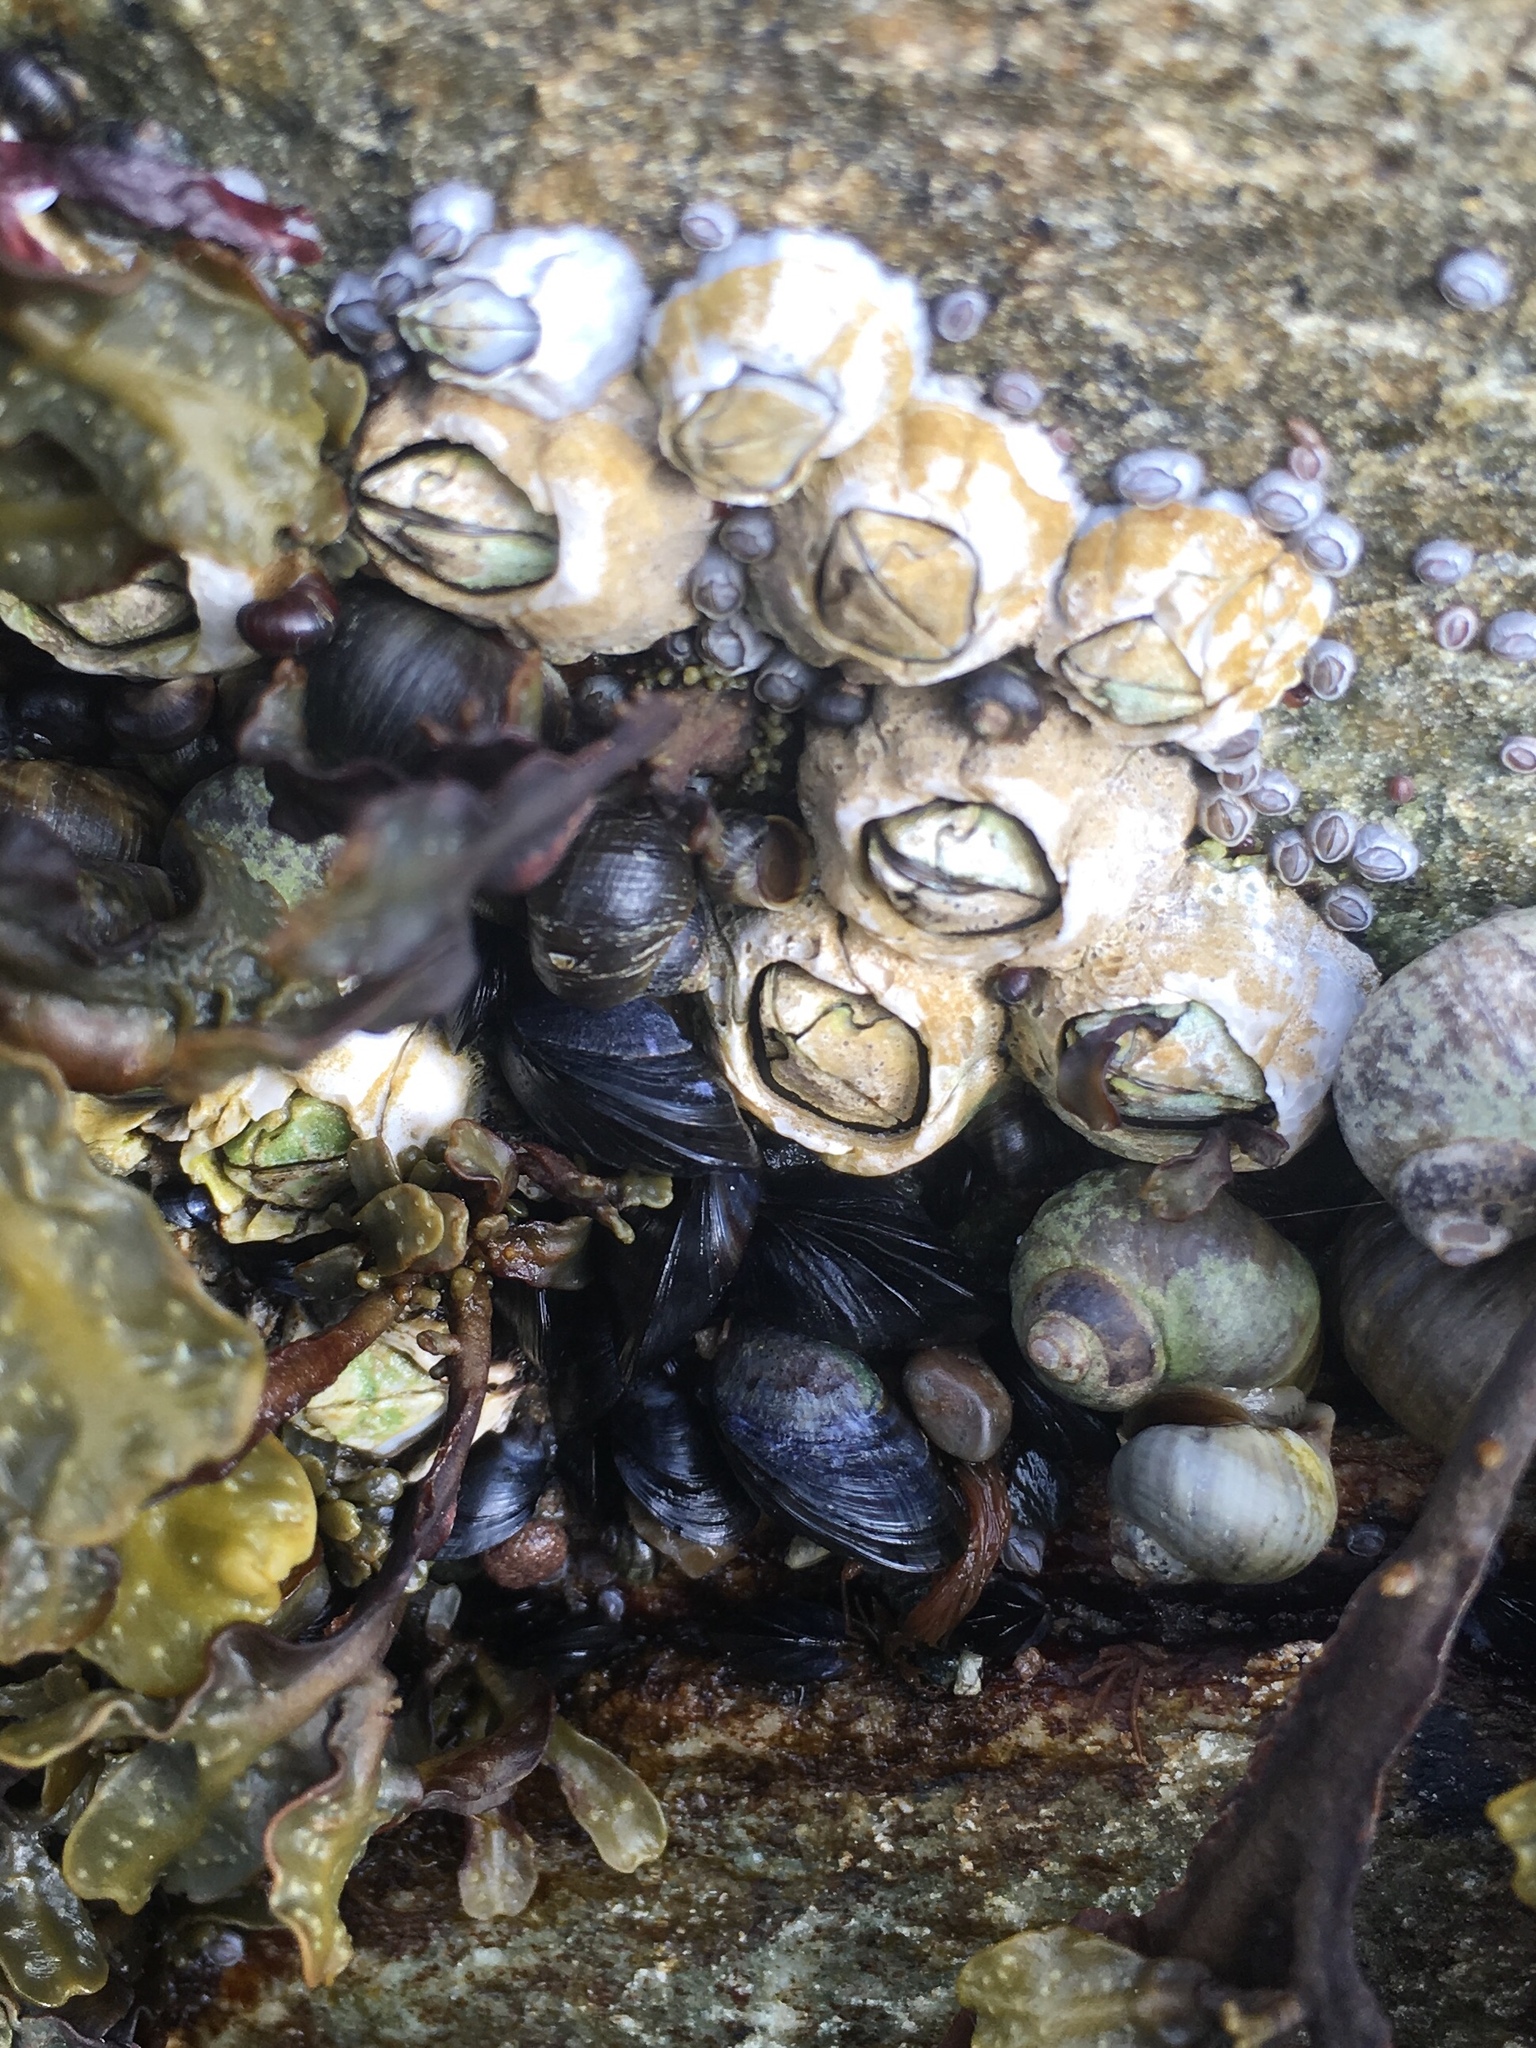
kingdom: Animalia
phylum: Arthropoda
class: Maxillopoda
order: Sessilia
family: Archaeobalanidae
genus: Semibalanus
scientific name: Semibalanus balanoides
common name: Acorn barnacle
